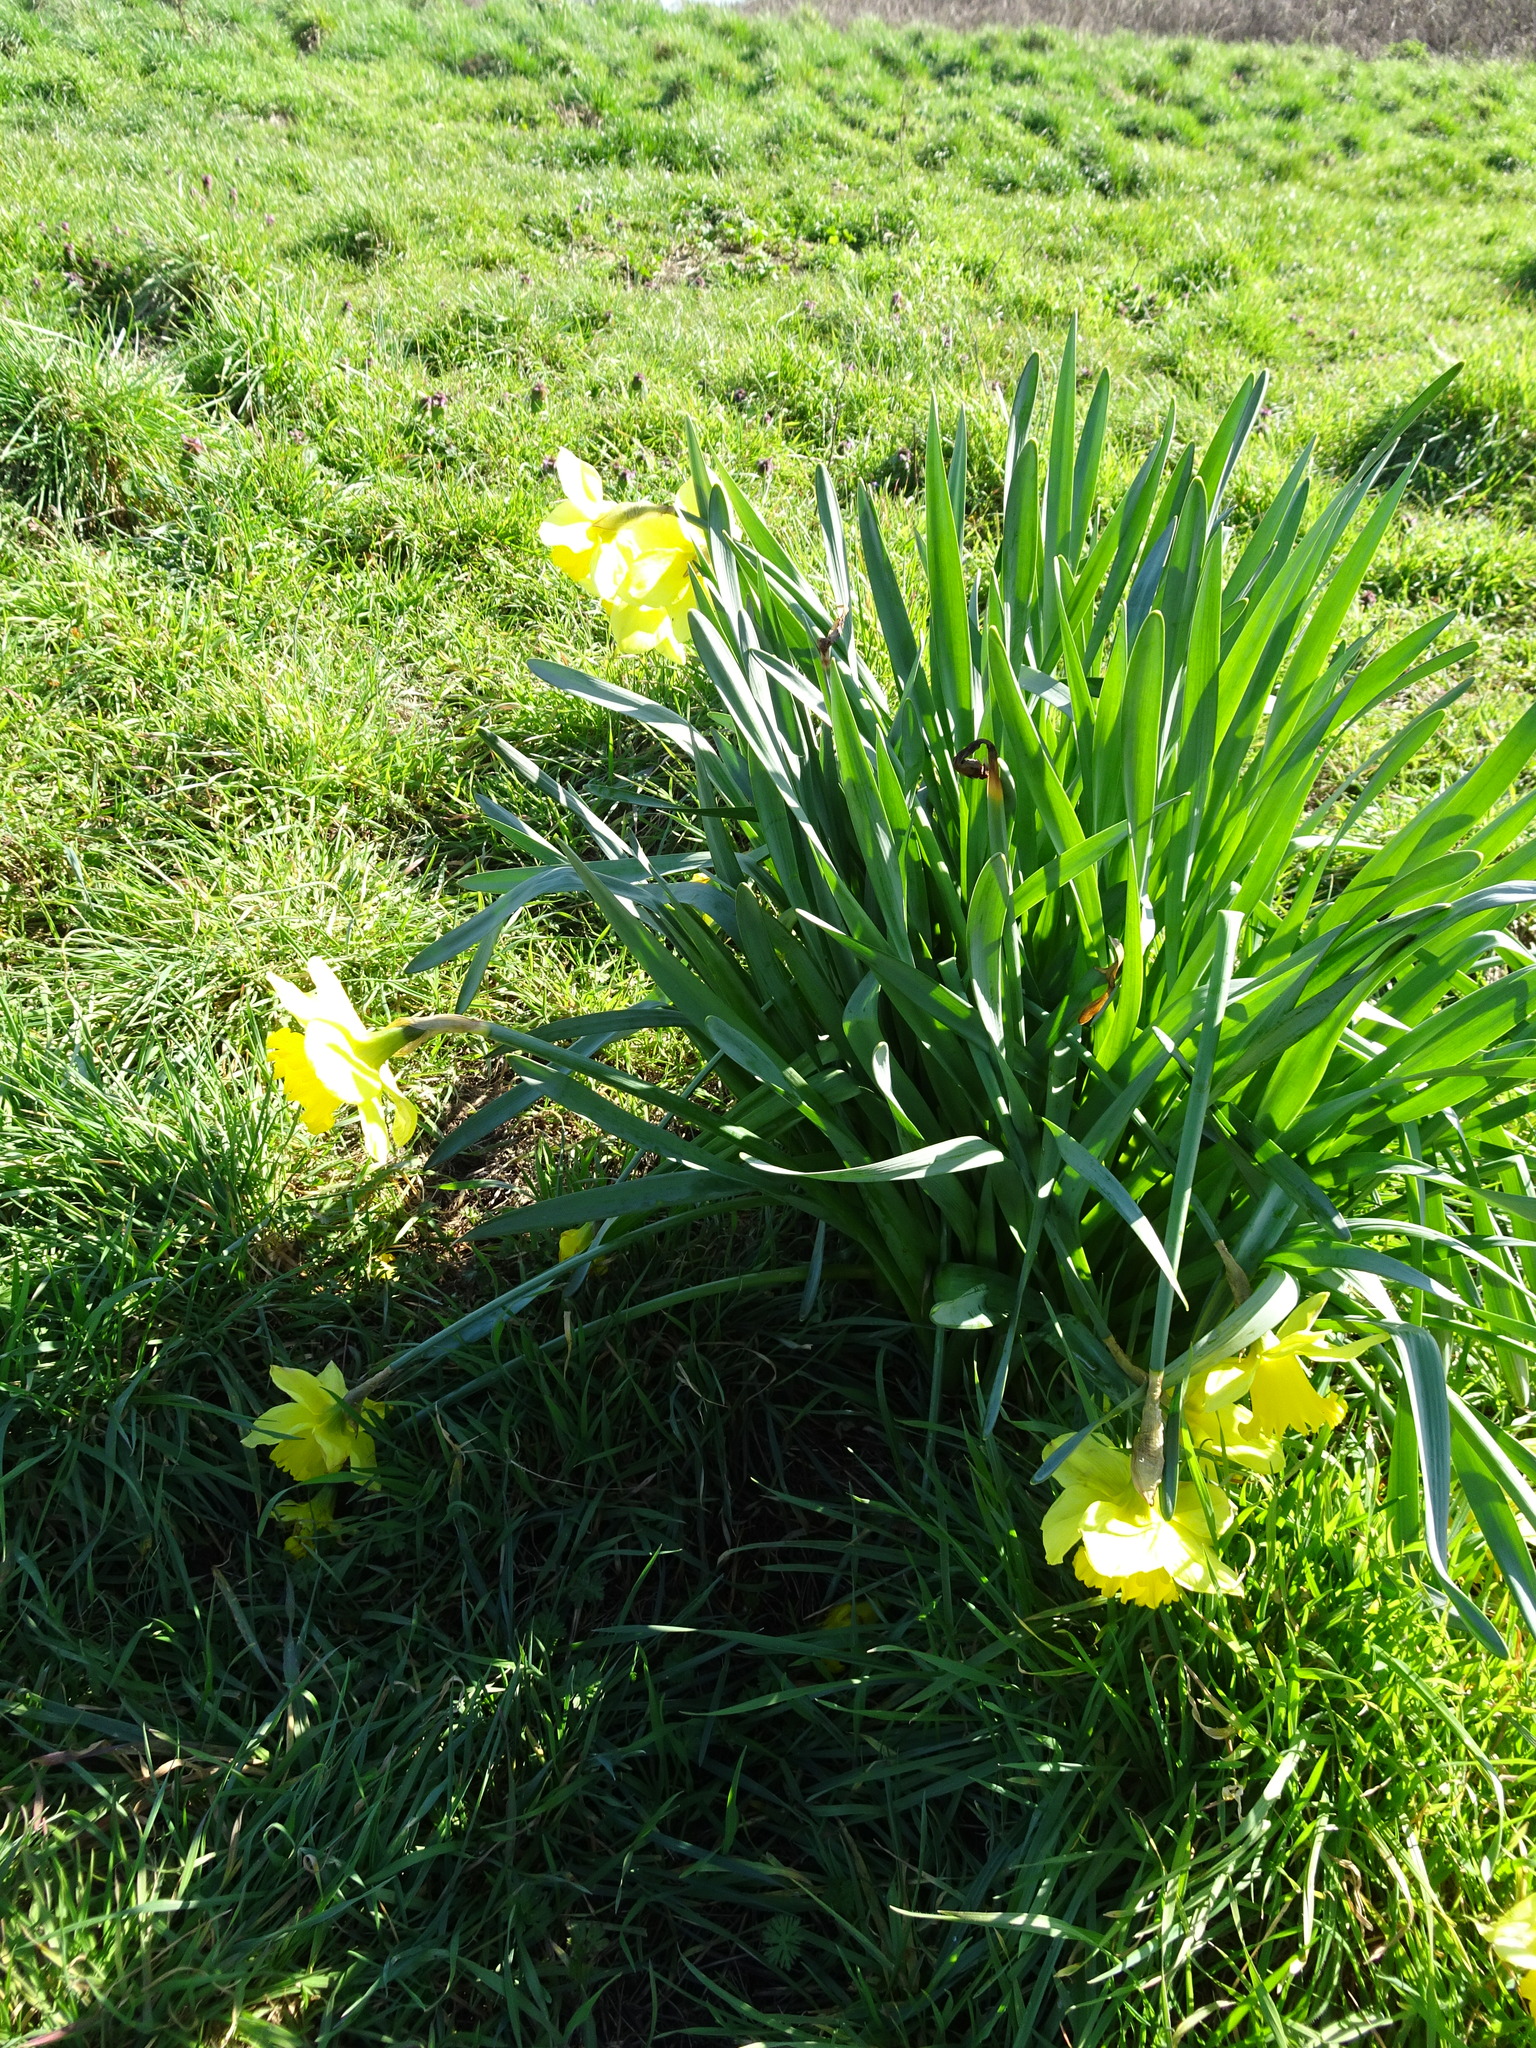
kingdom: Plantae
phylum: Tracheophyta
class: Liliopsida
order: Asparagales
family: Amaryllidaceae
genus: Narcissus
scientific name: Narcissus
